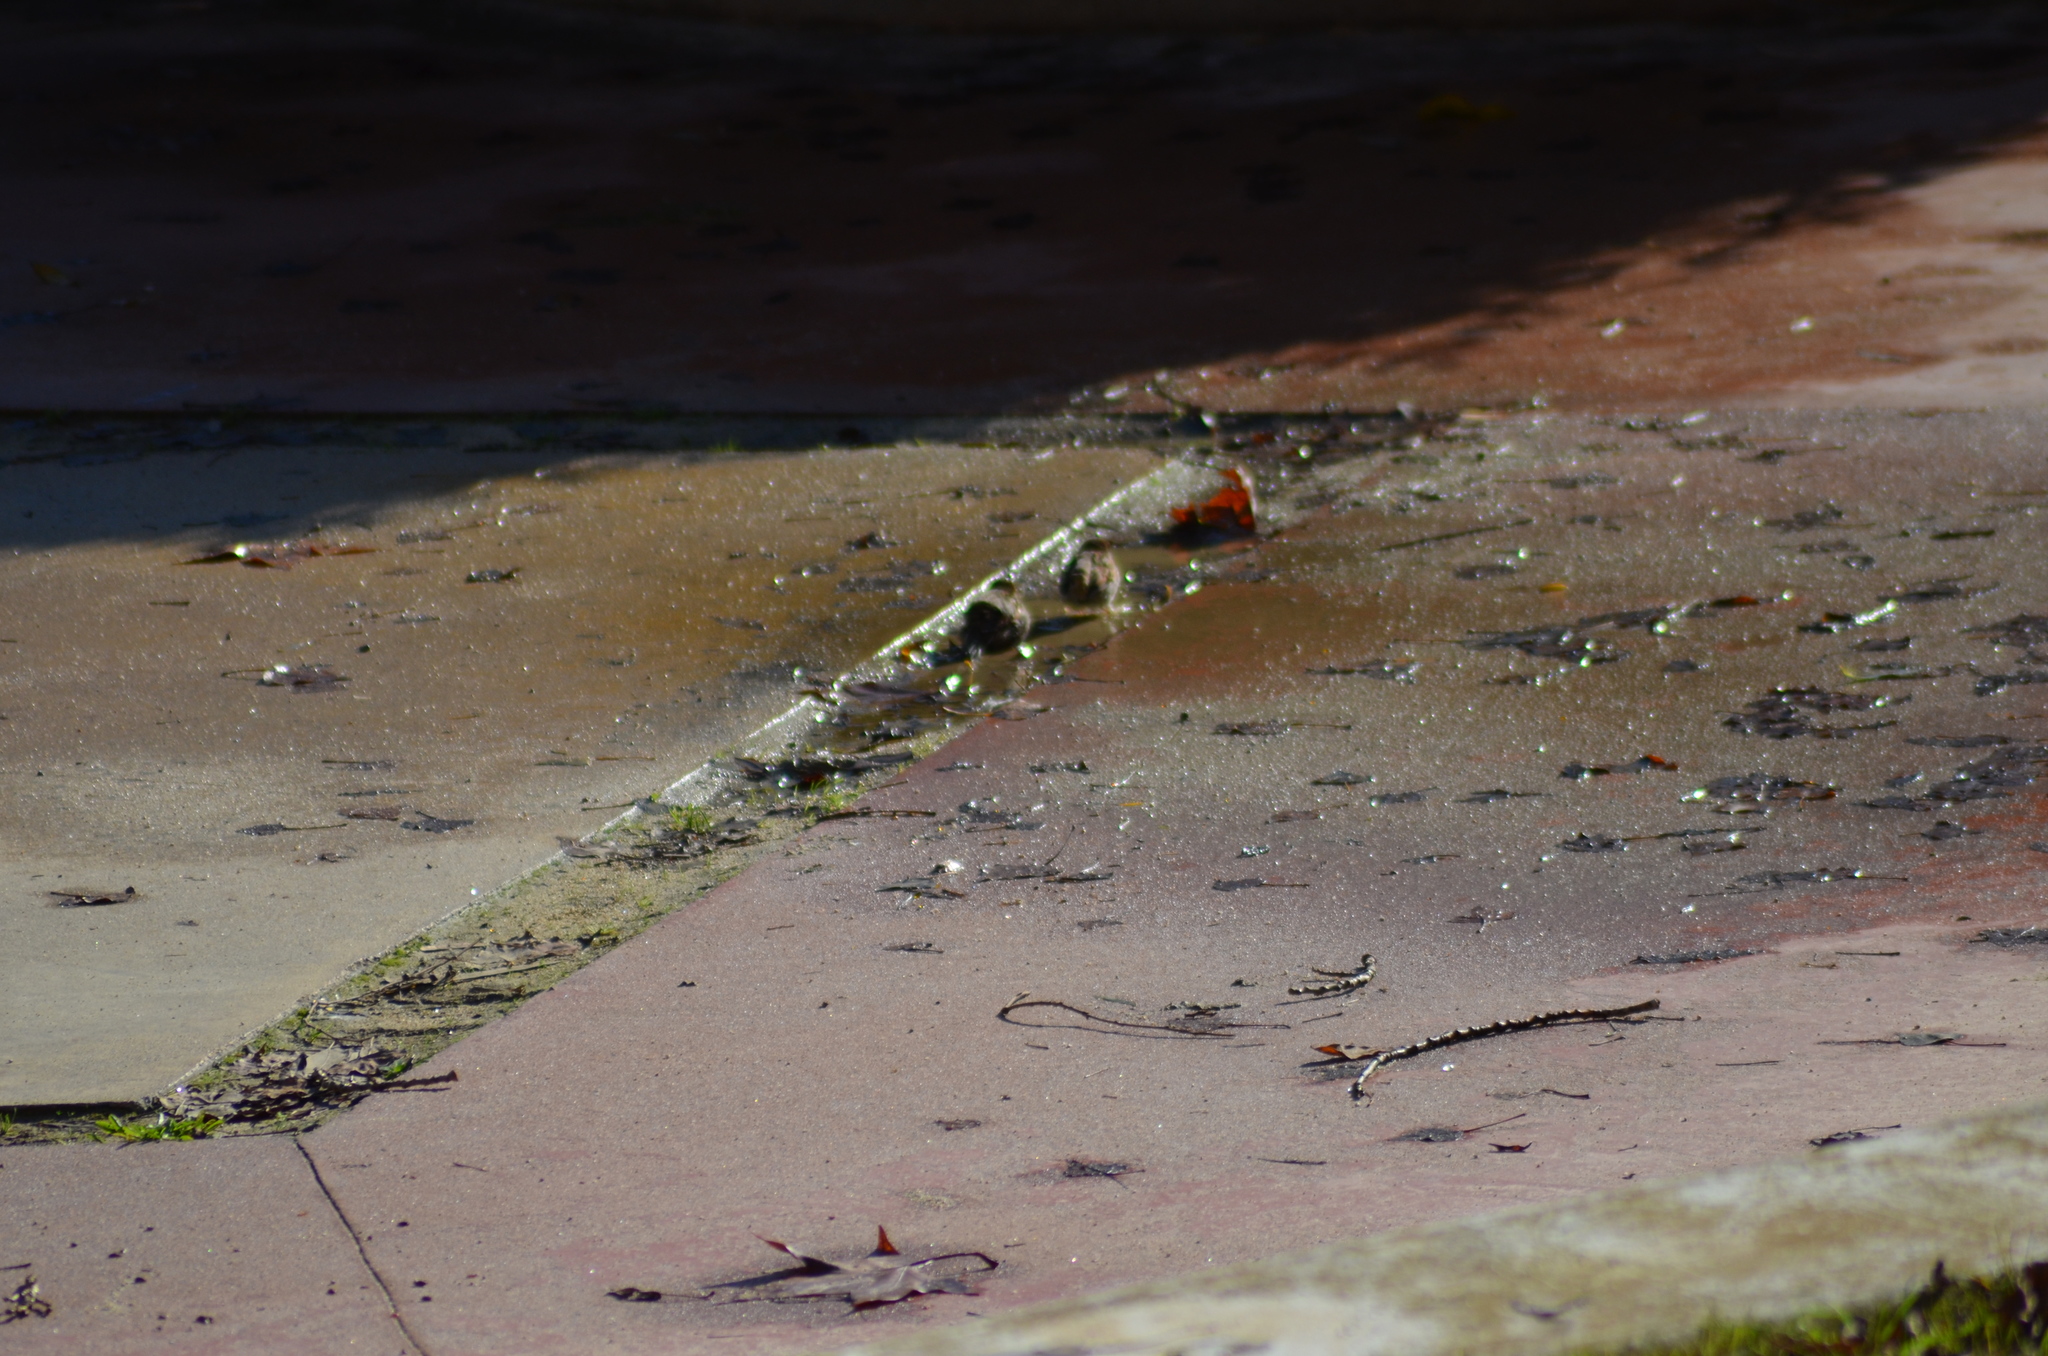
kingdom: Animalia
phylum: Chordata
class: Aves
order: Passeriformes
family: Passeridae
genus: Passer
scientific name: Passer domesticus
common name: House sparrow
